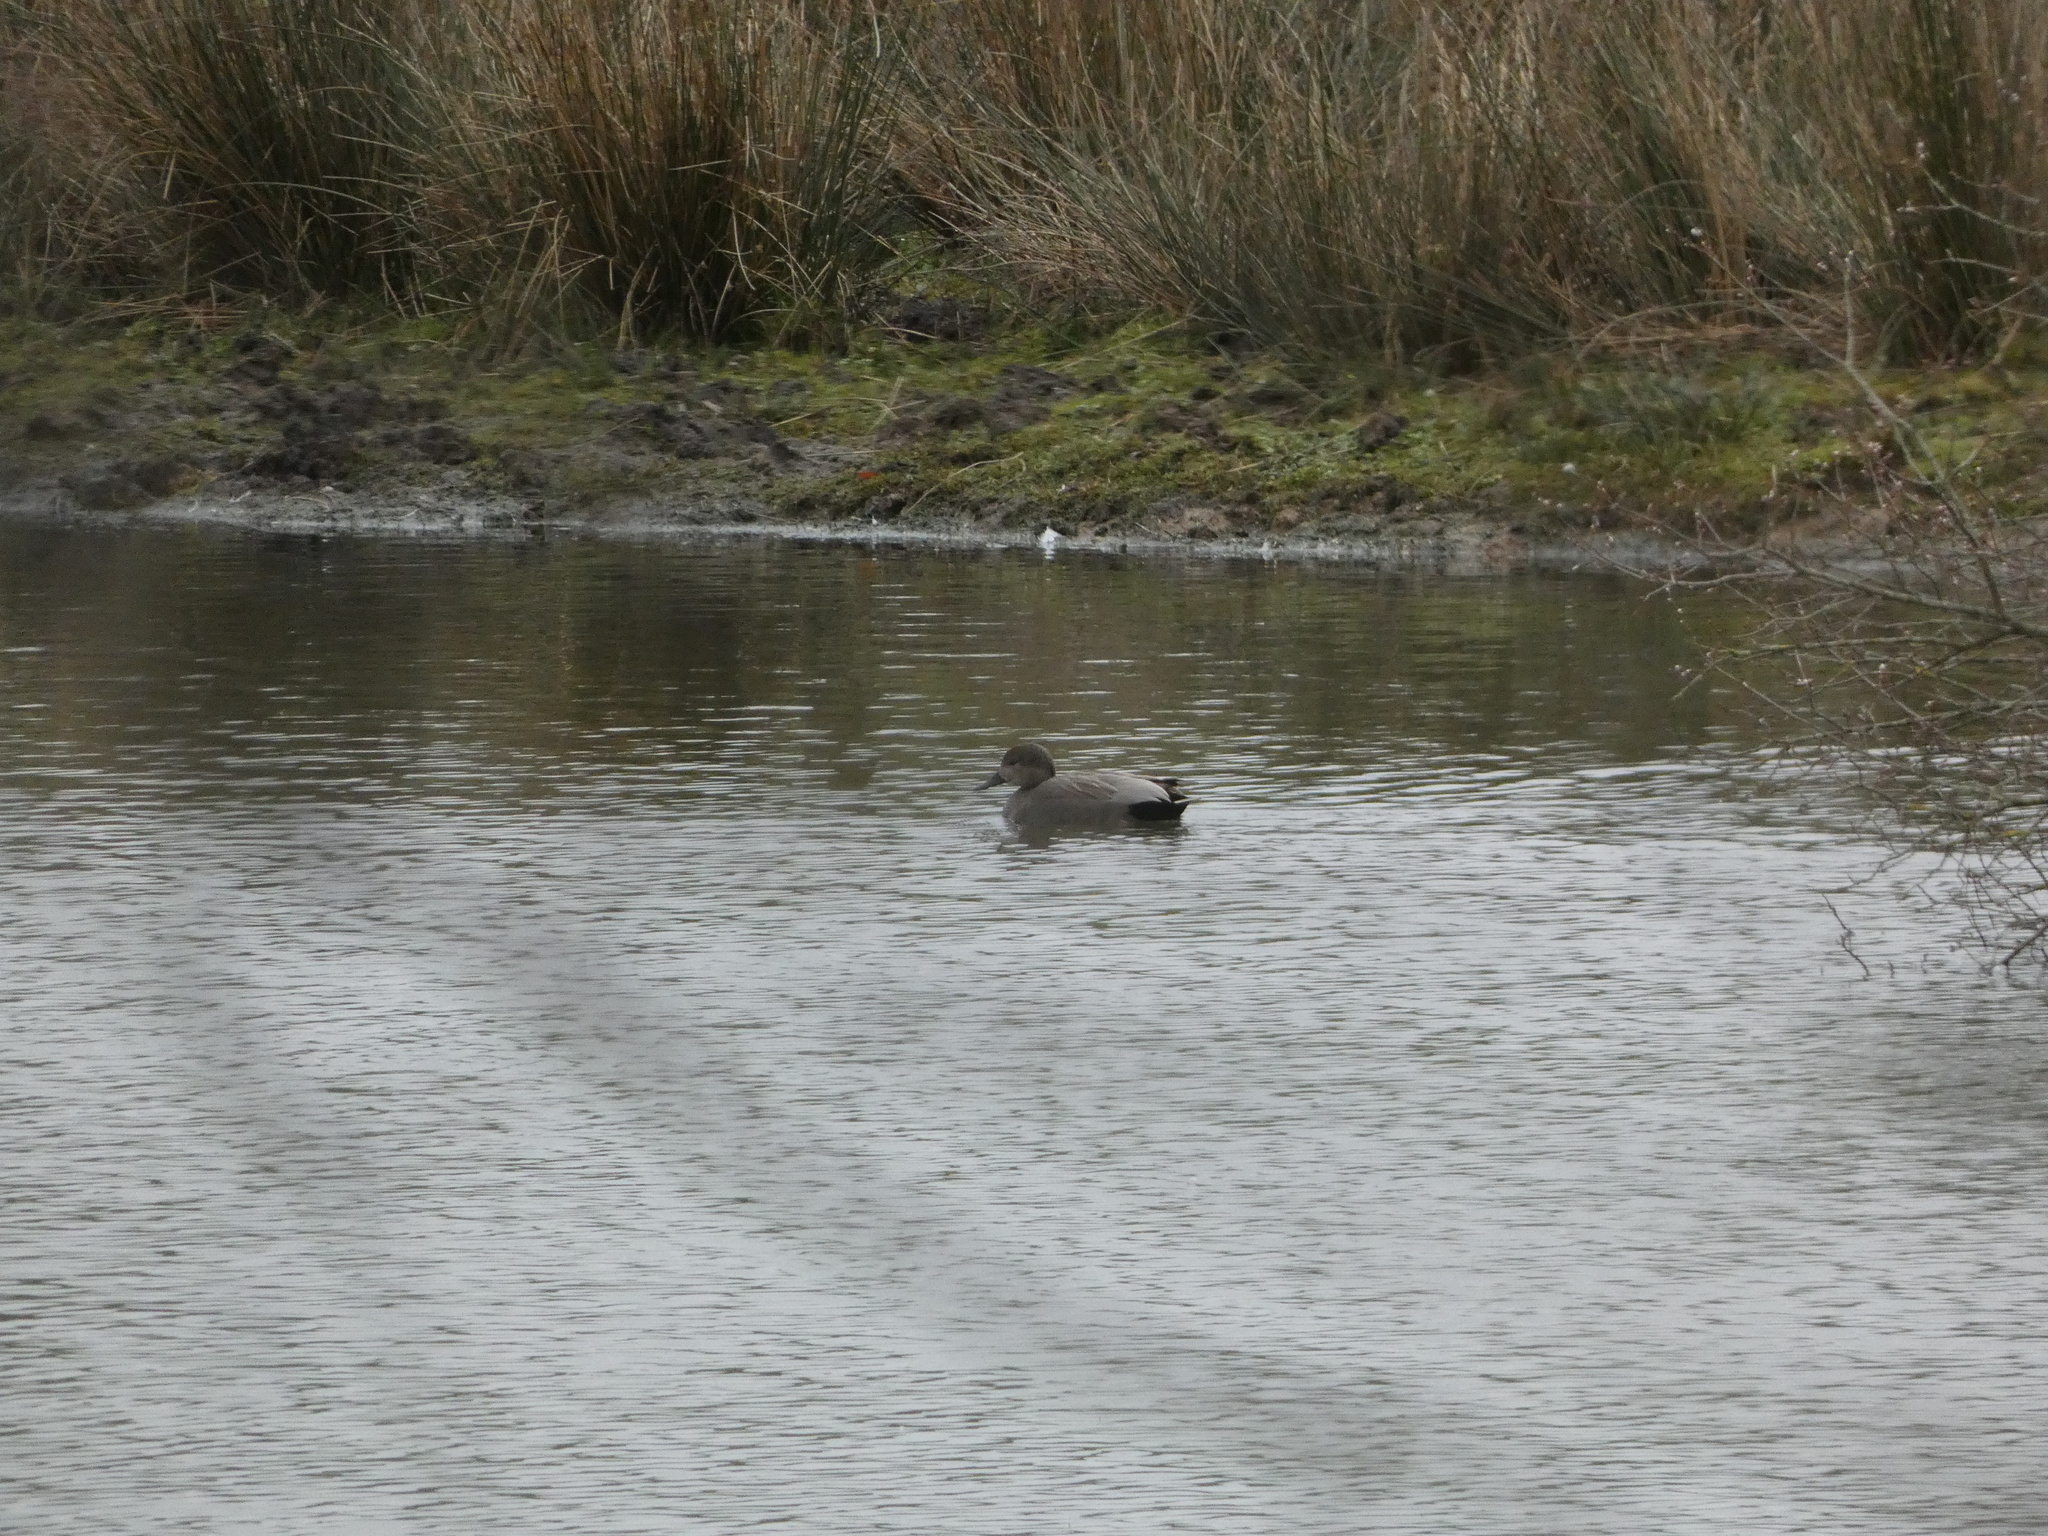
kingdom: Animalia
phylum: Chordata
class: Aves
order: Anseriformes
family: Anatidae
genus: Mareca
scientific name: Mareca strepera
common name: Gadwall
